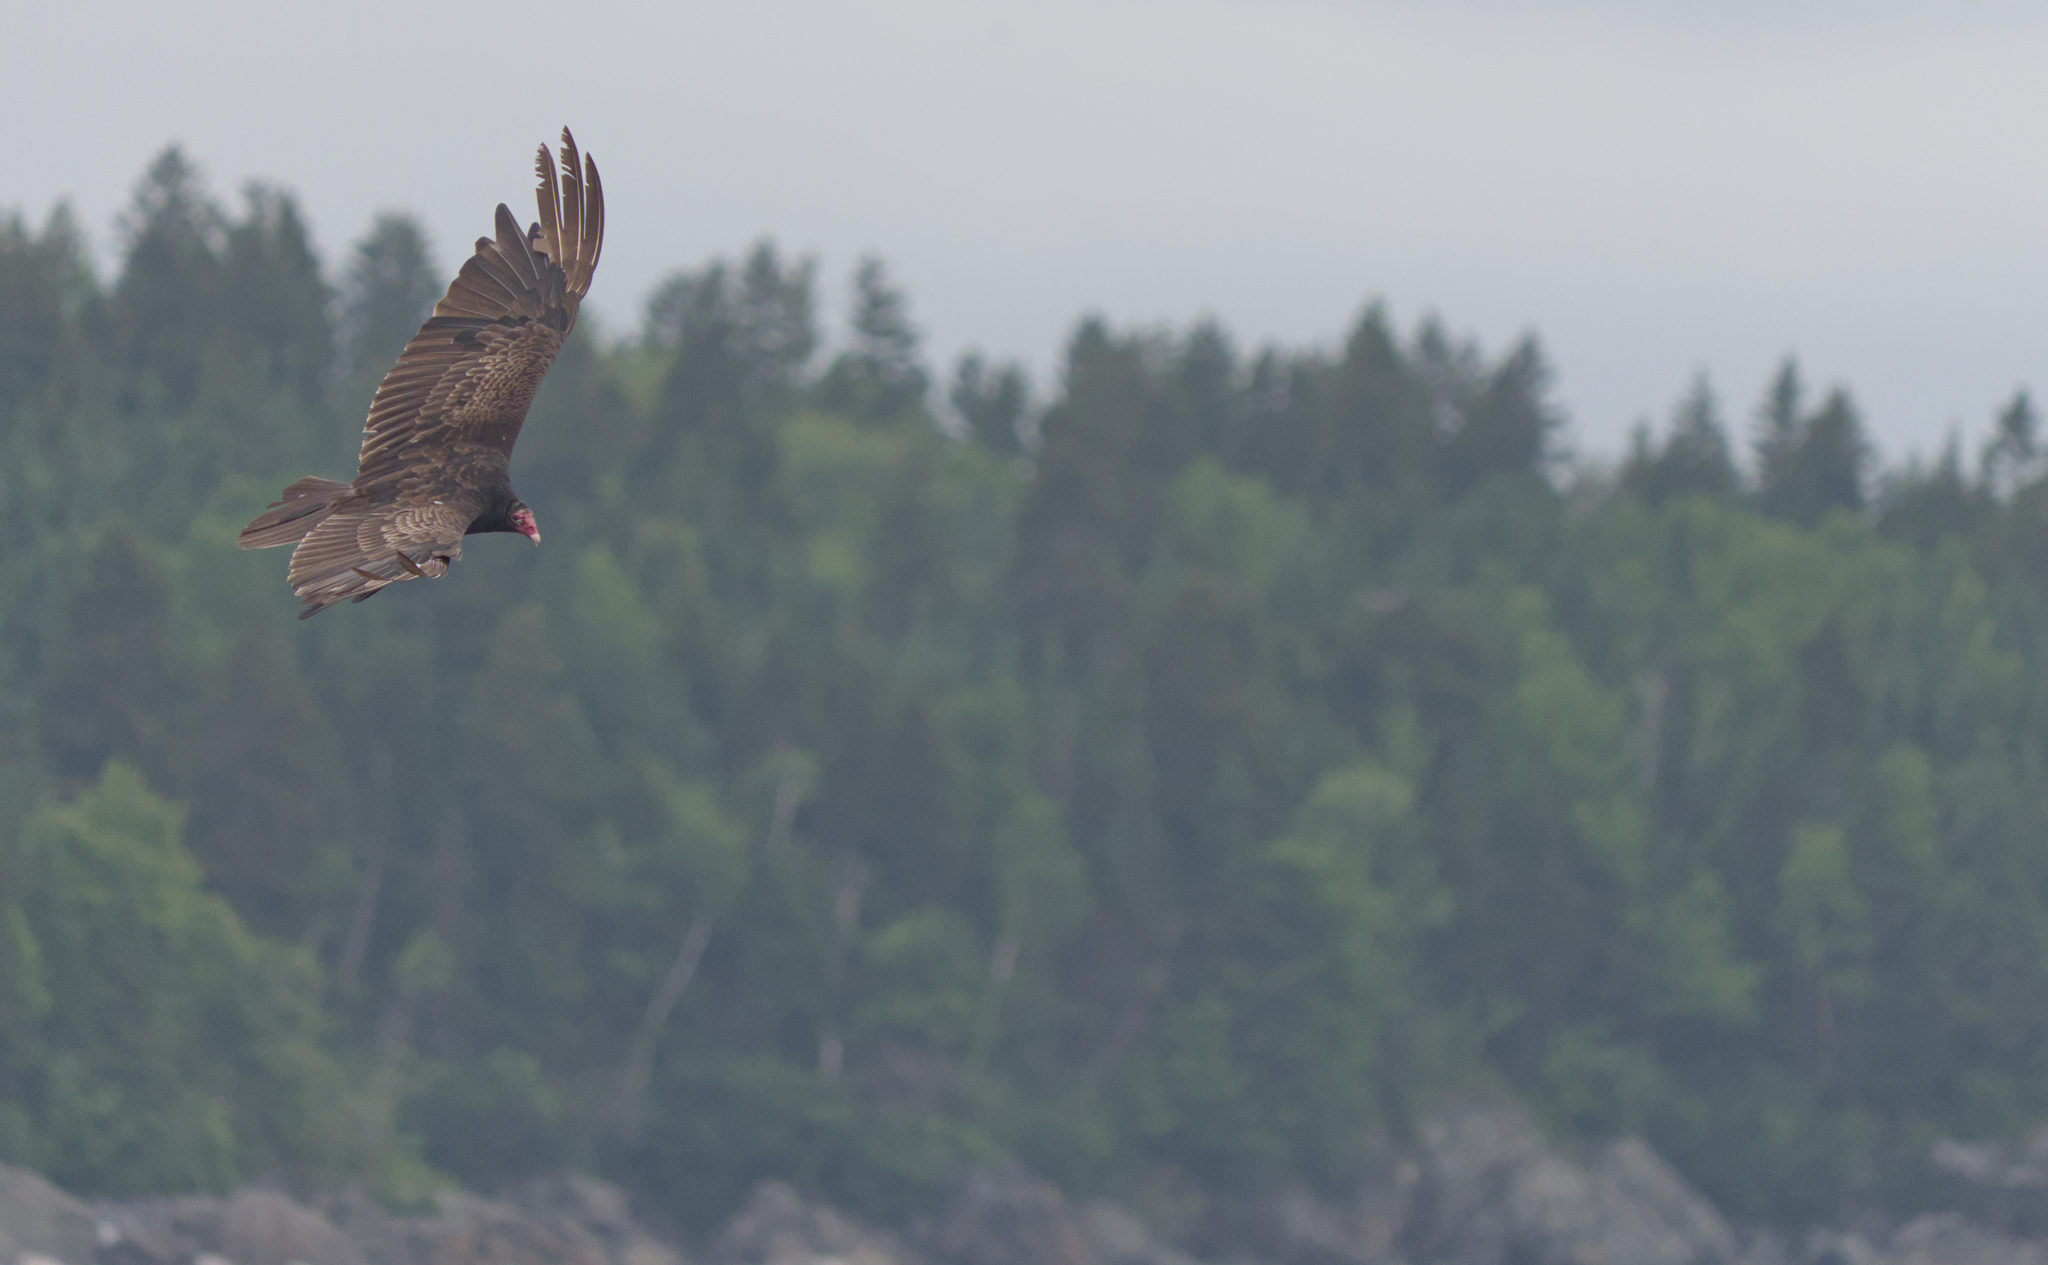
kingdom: Animalia
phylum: Chordata
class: Aves
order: Accipitriformes
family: Cathartidae
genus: Cathartes
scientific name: Cathartes aura
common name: Turkey vulture
